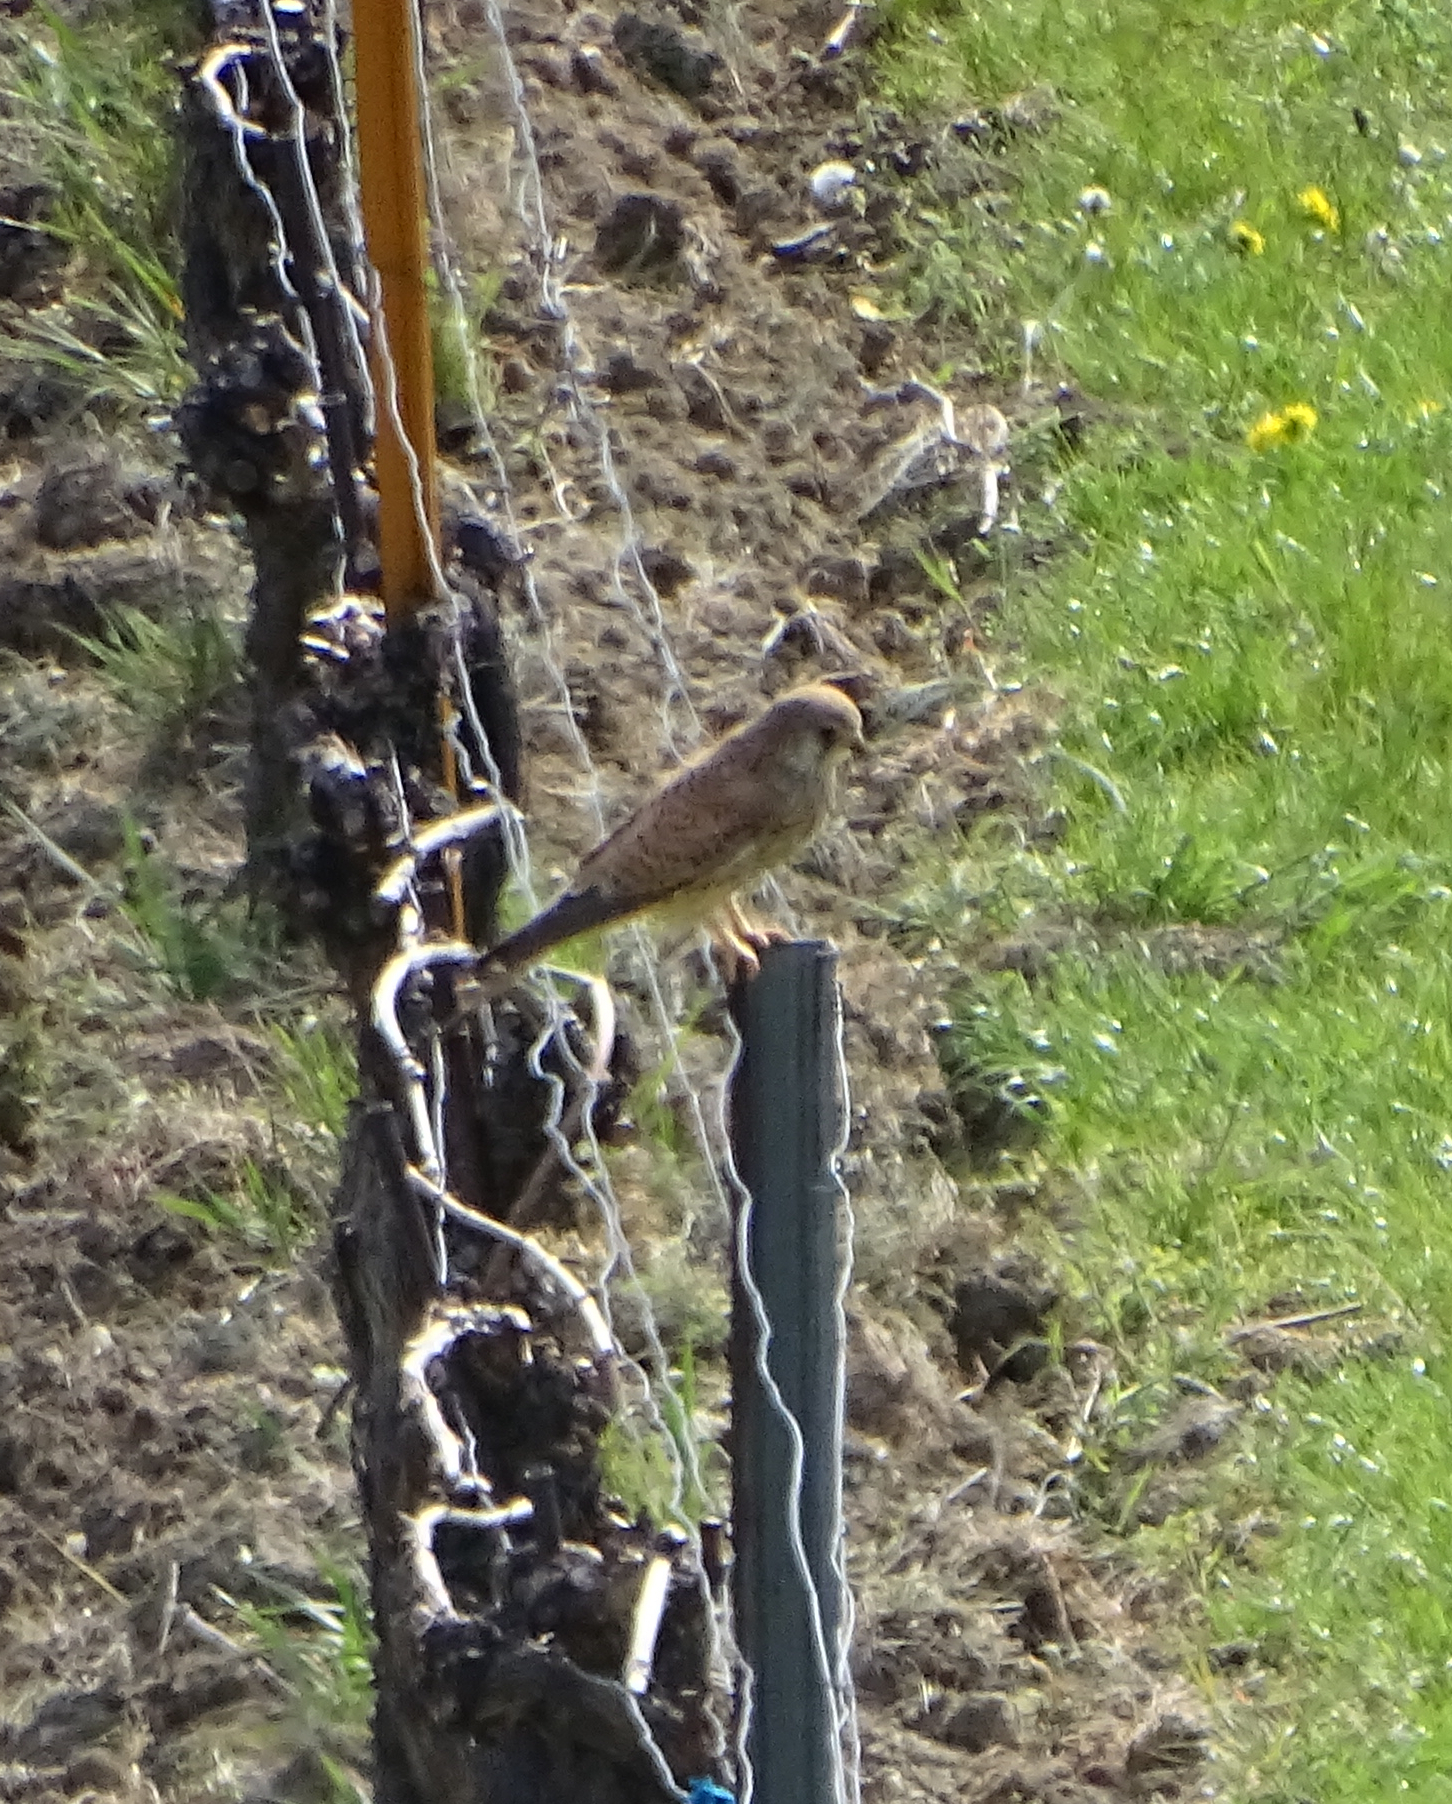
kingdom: Animalia
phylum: Chordata
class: Aves
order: Falconiformes
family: Falconidae
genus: Falco
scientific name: Falco tinnunculus
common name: Common kestrel
